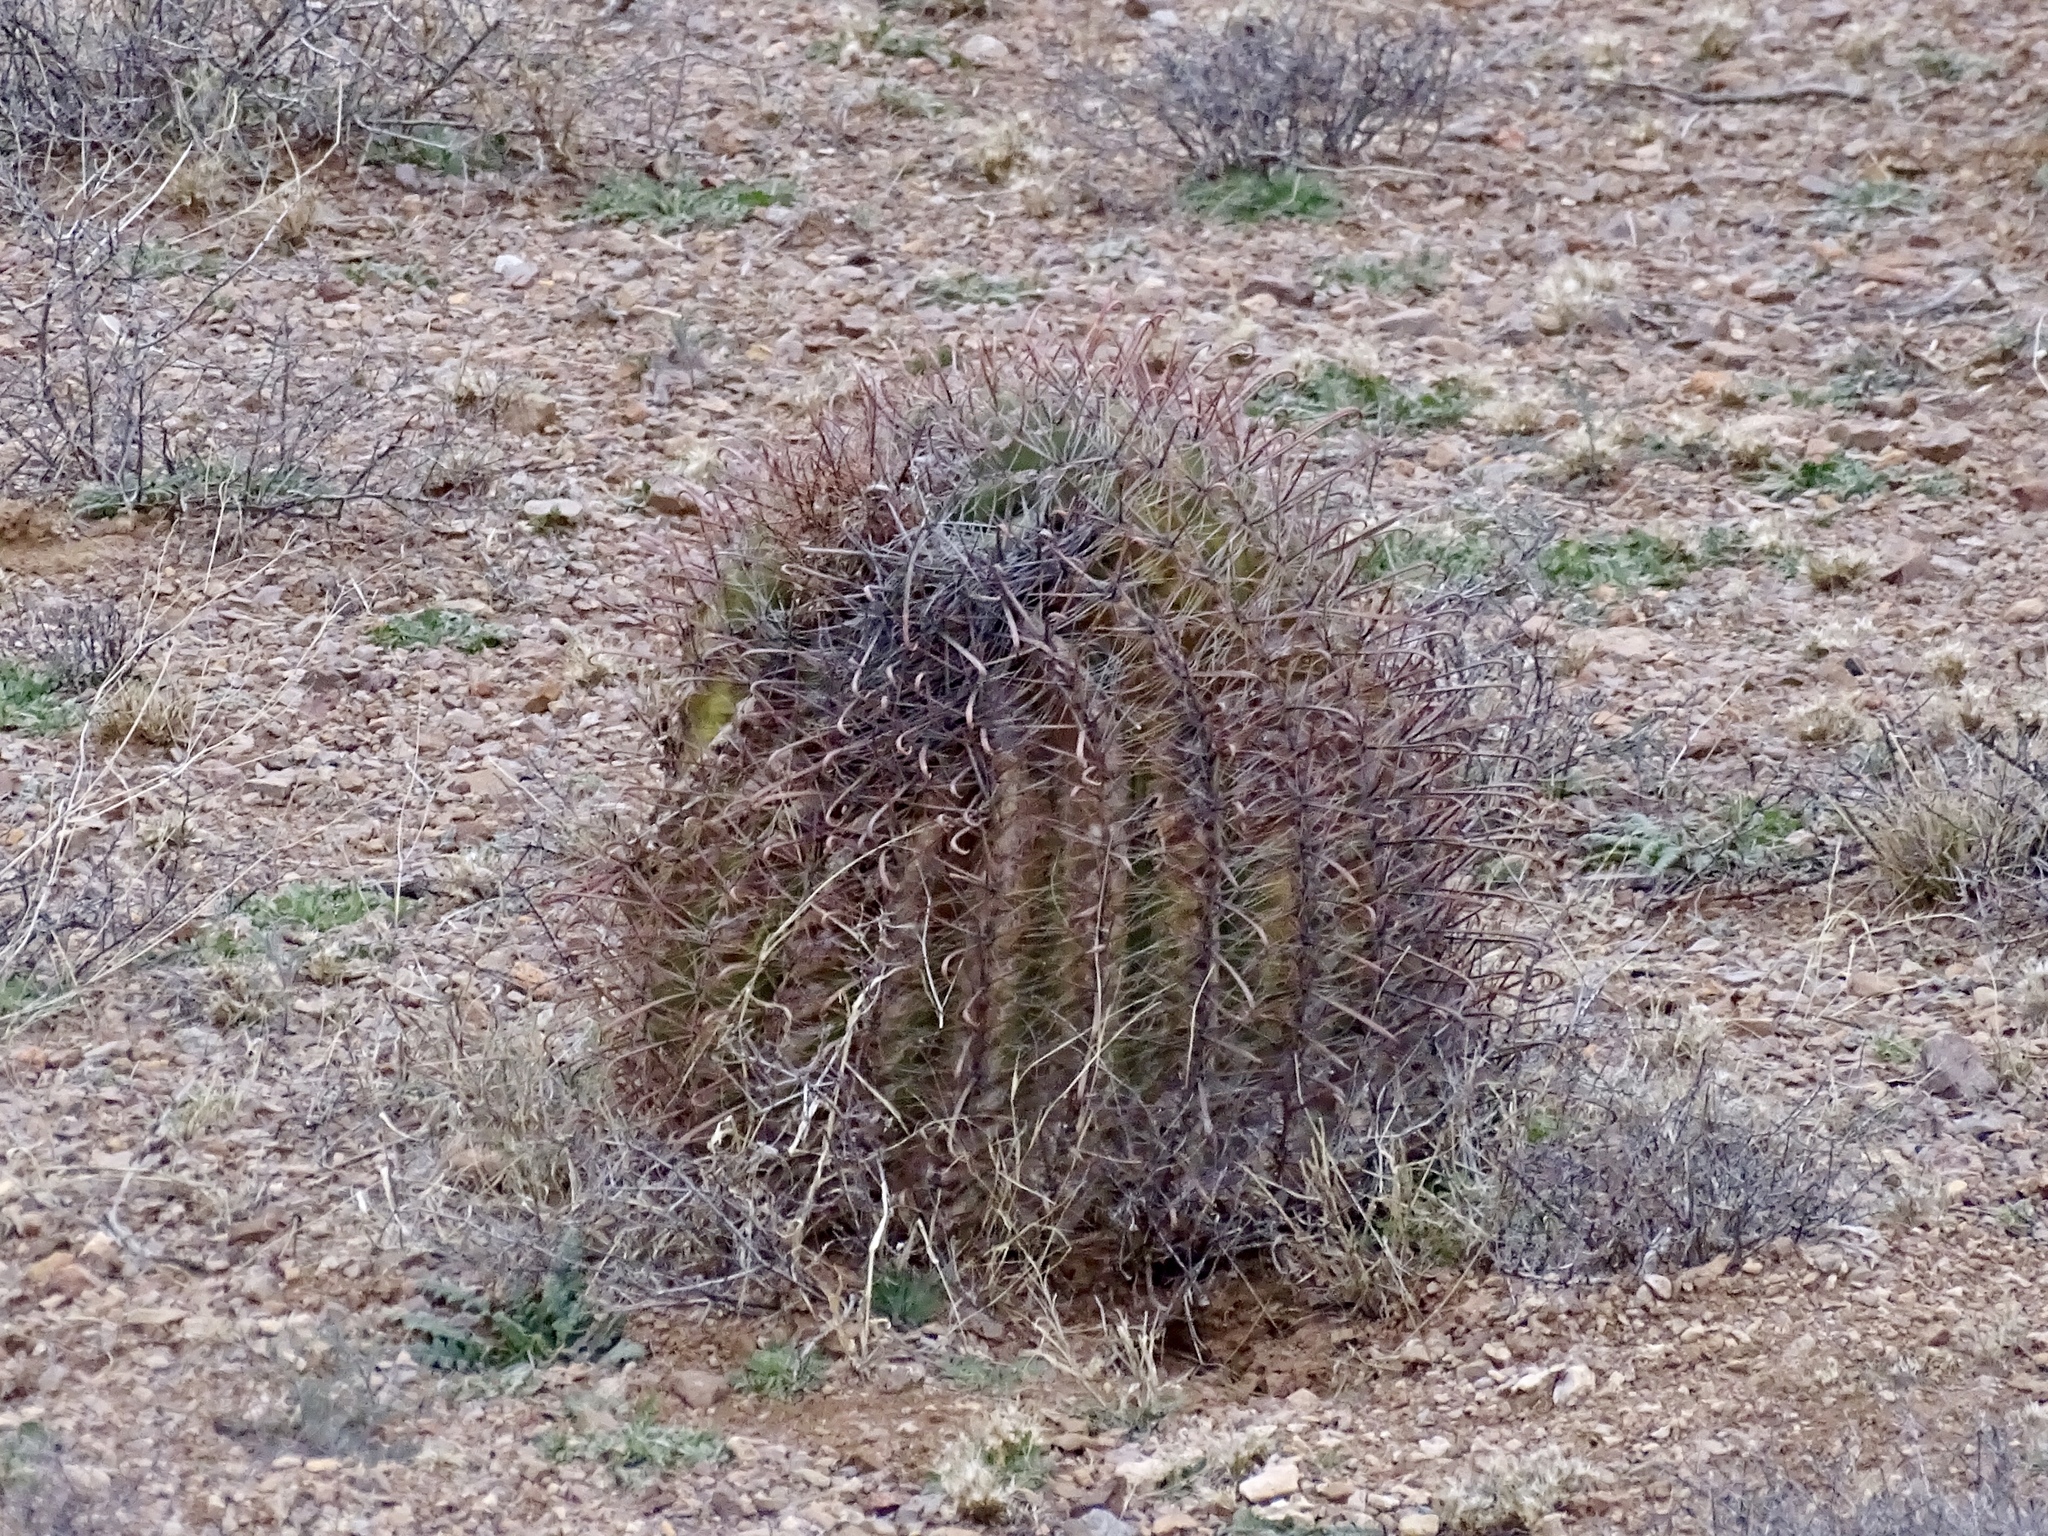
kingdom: Plantae
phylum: Tracheophyta
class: Magnoliopsida
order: Caryophyllales
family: Cactaceae
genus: Ferocactus
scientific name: Ferocactus wislizeni
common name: Candy barrel cactus
